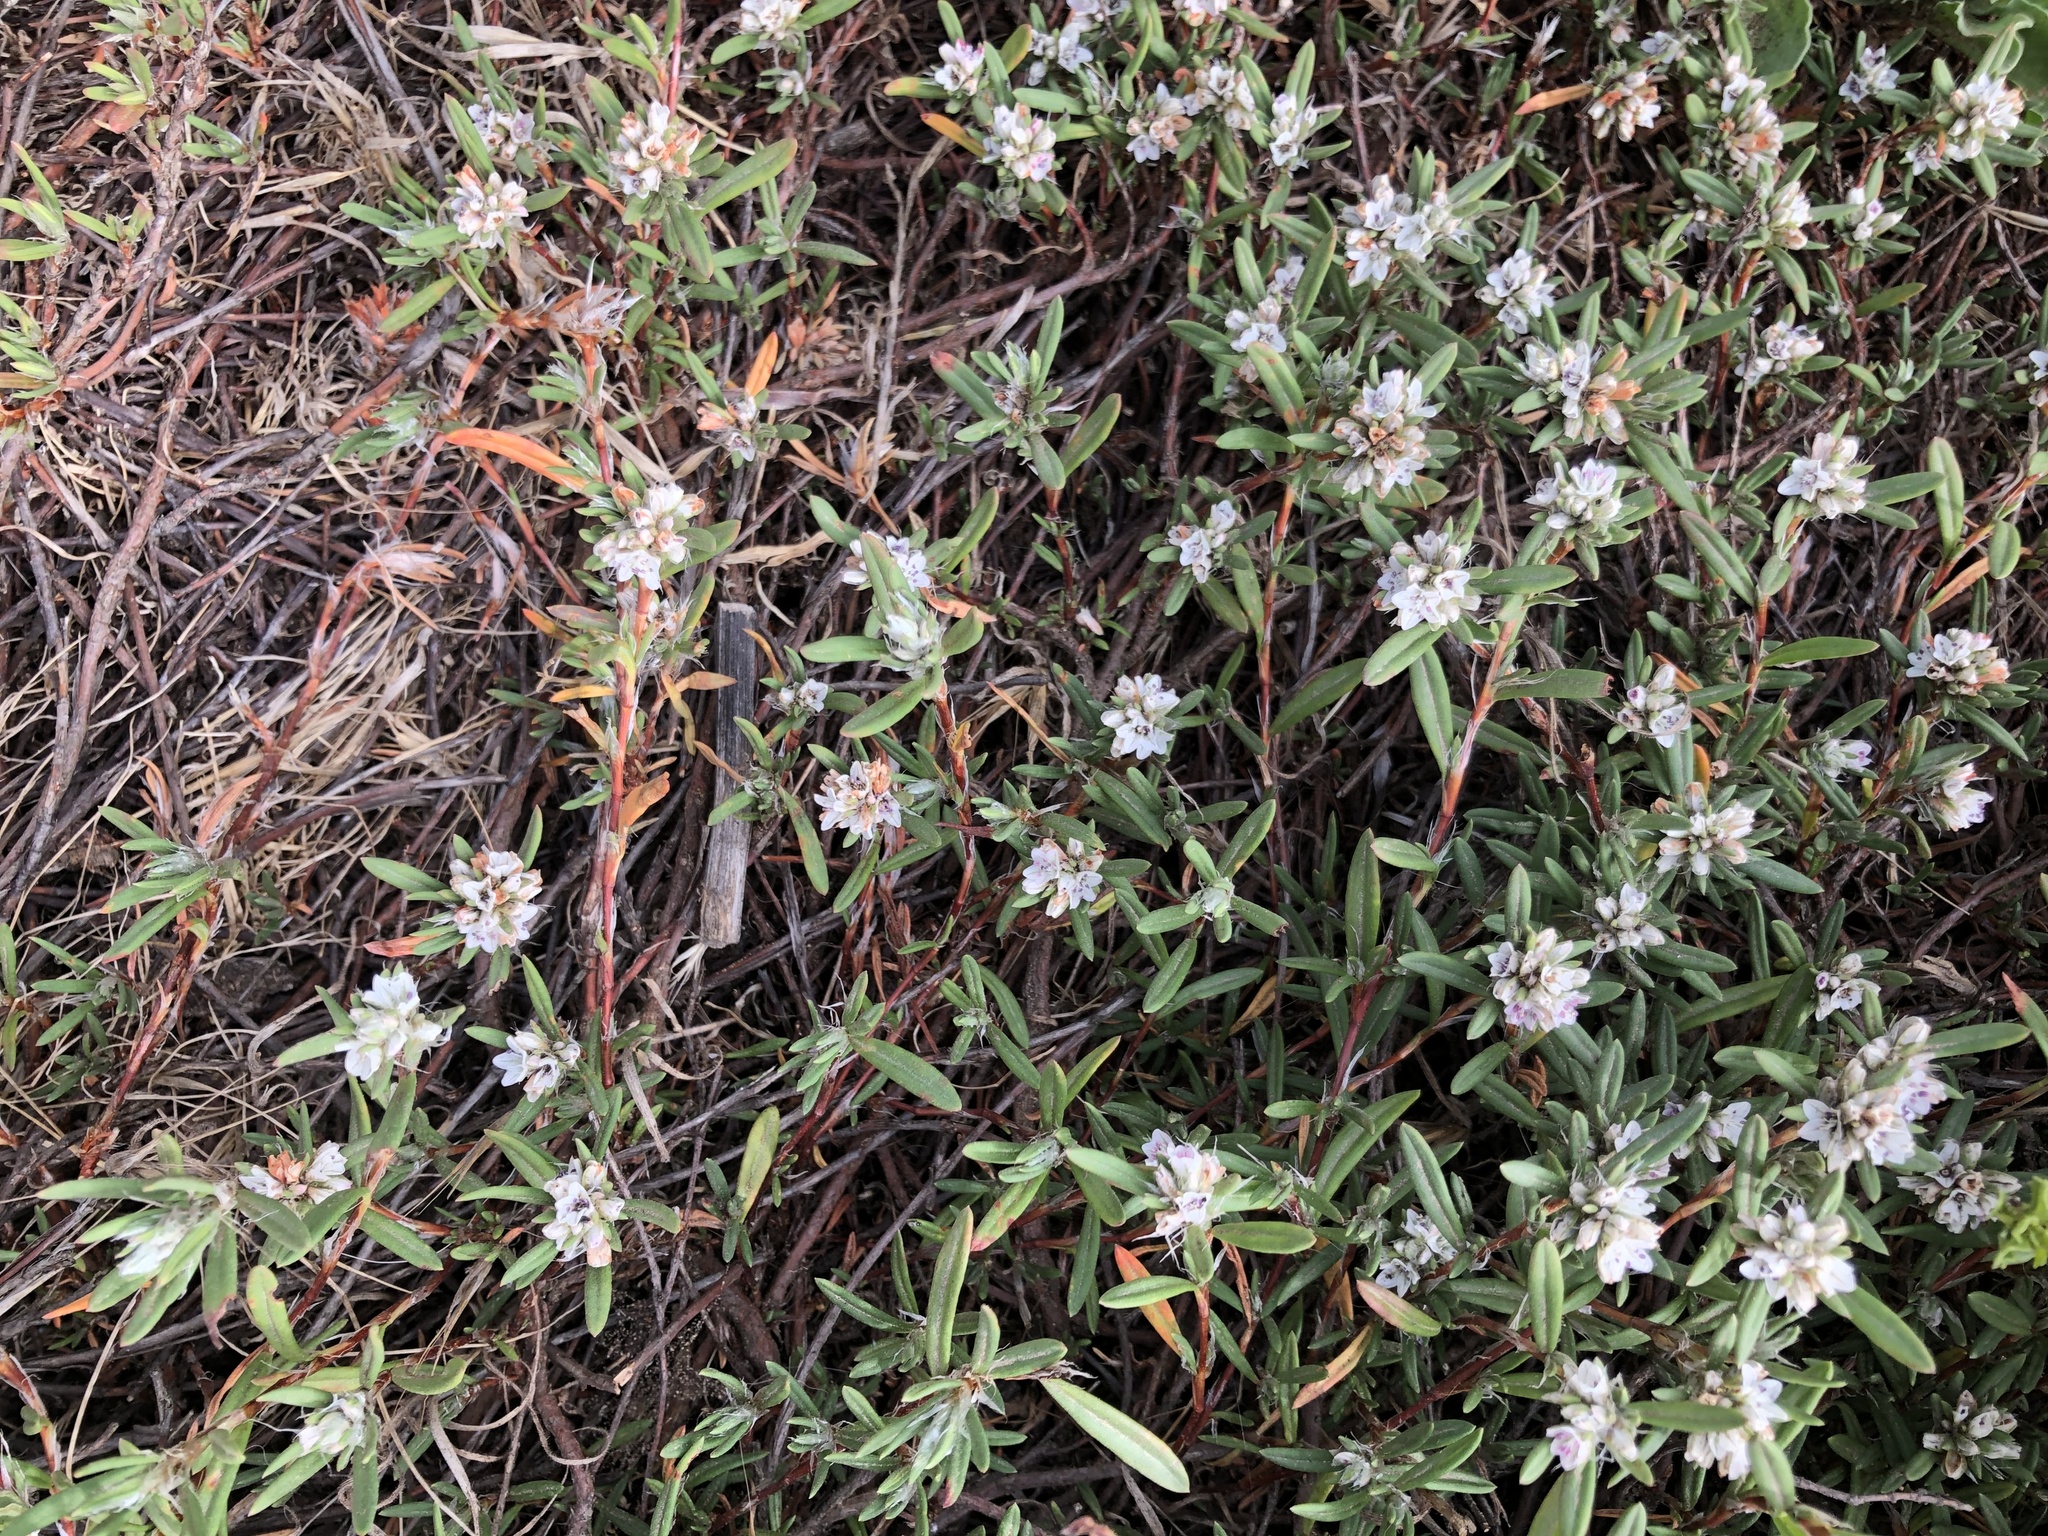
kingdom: Plantae
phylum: Tracheophyta
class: Magnoliopsida
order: Caryophyllales
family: Polygonaceae
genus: Polygonum
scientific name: Polygonum paronychia
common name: Dune knotweed
